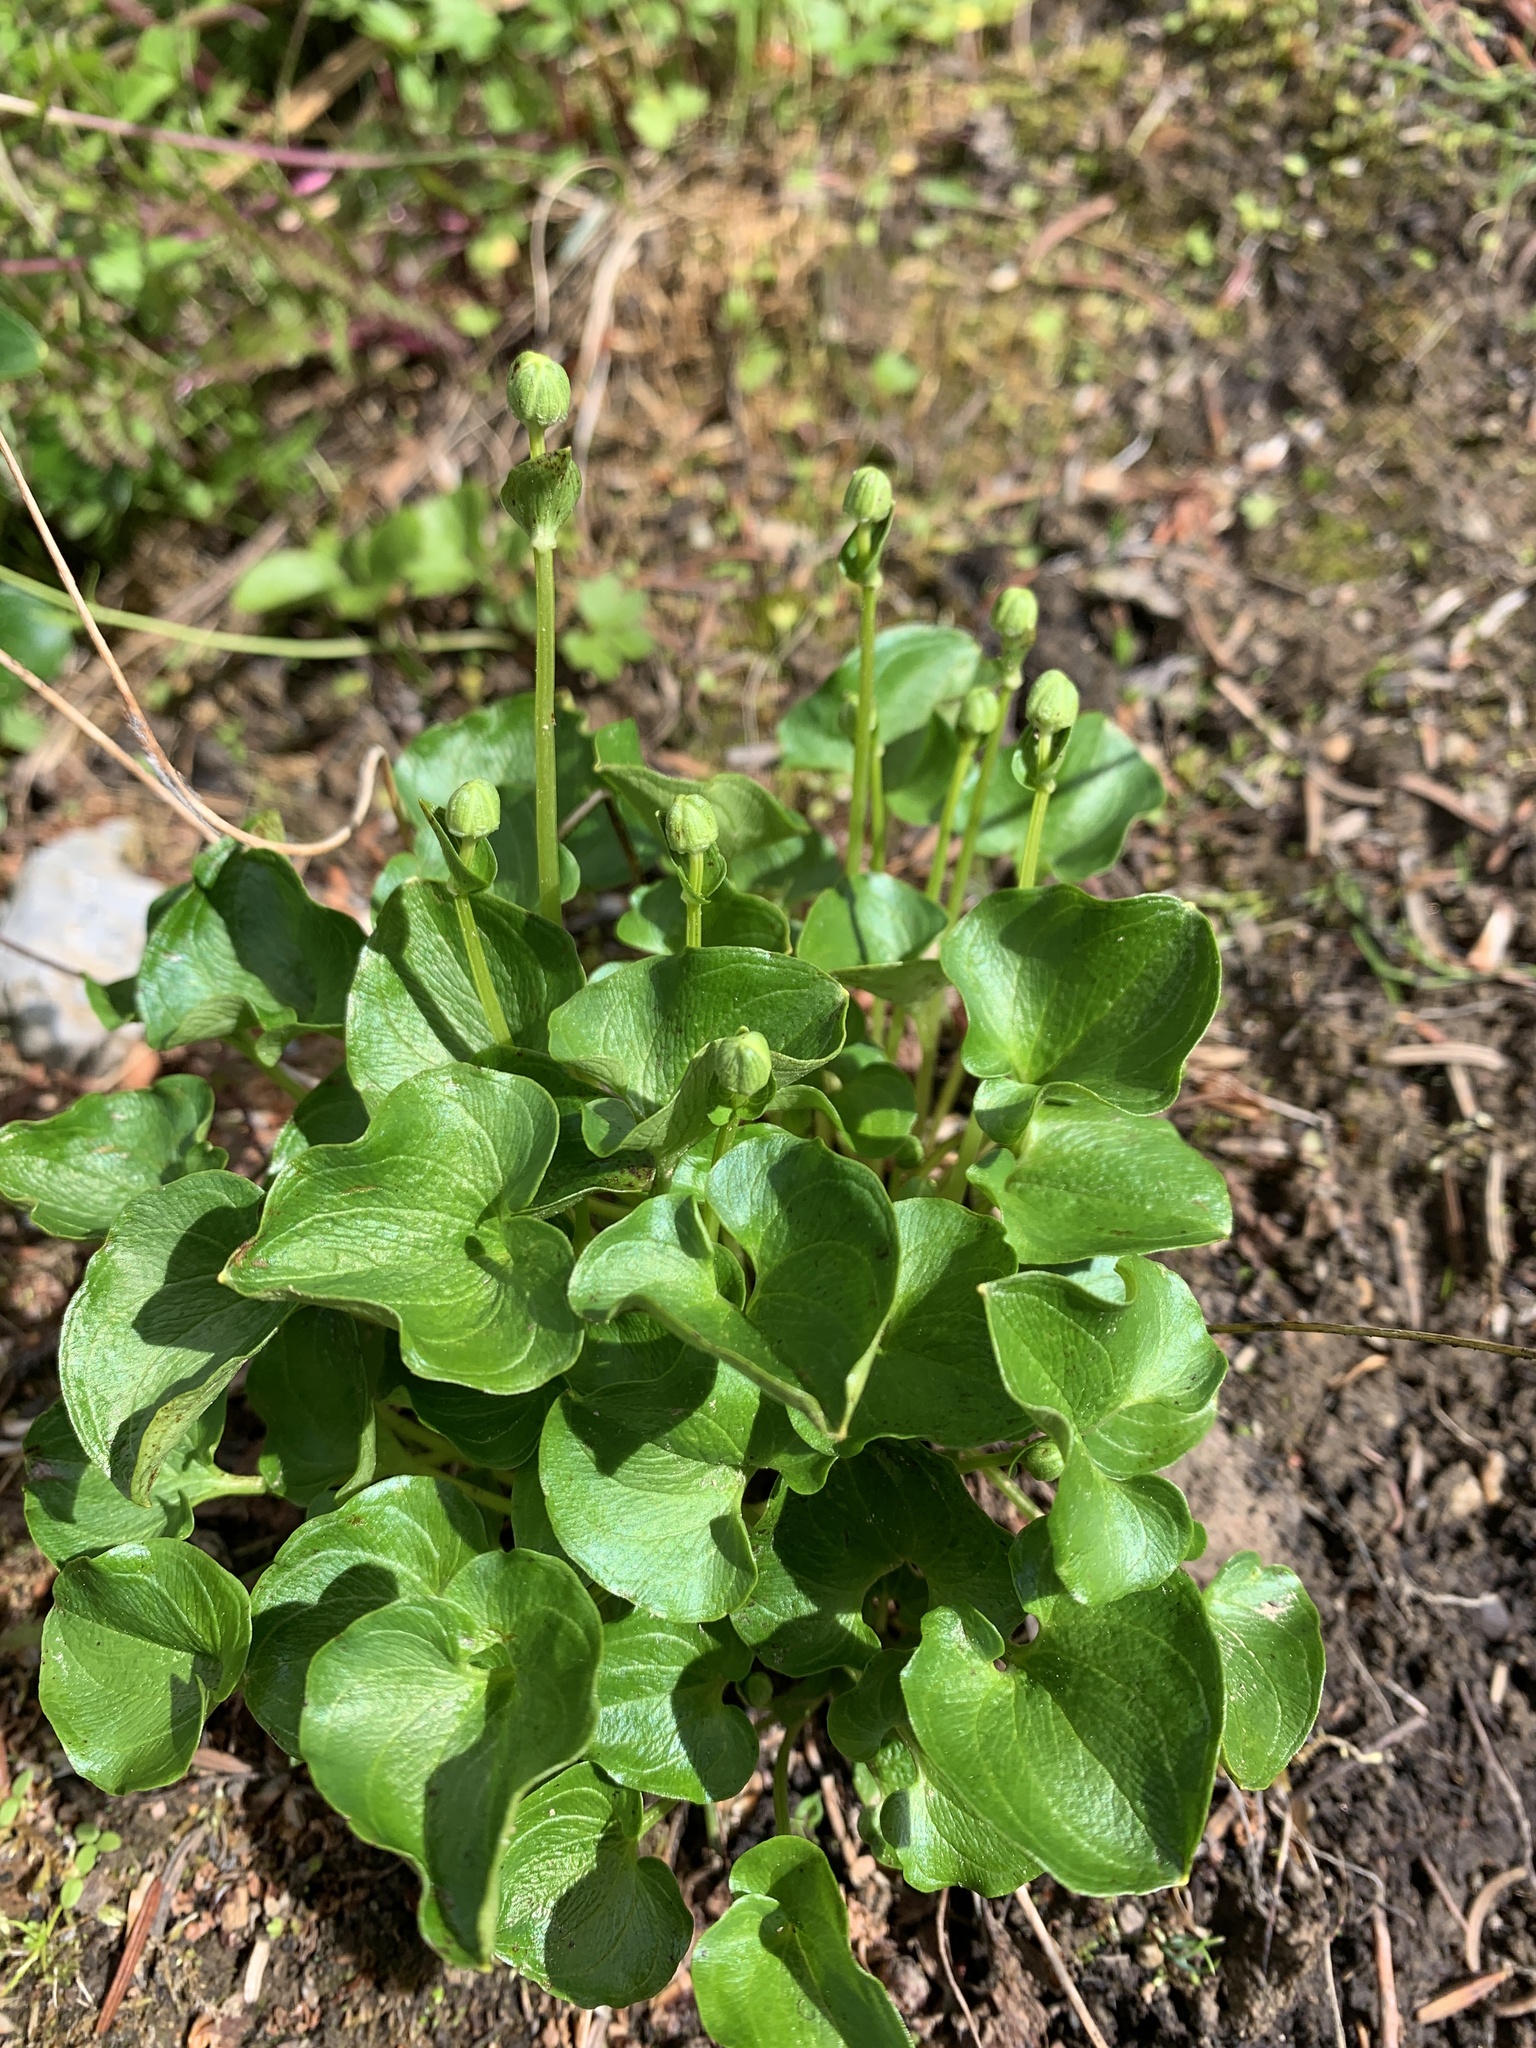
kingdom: Plantae
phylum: Tracheophyta
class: Magnoliopsida
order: Celastrales
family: Parnassiaceae
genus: Parnassia
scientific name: Parnassia fimbriata
